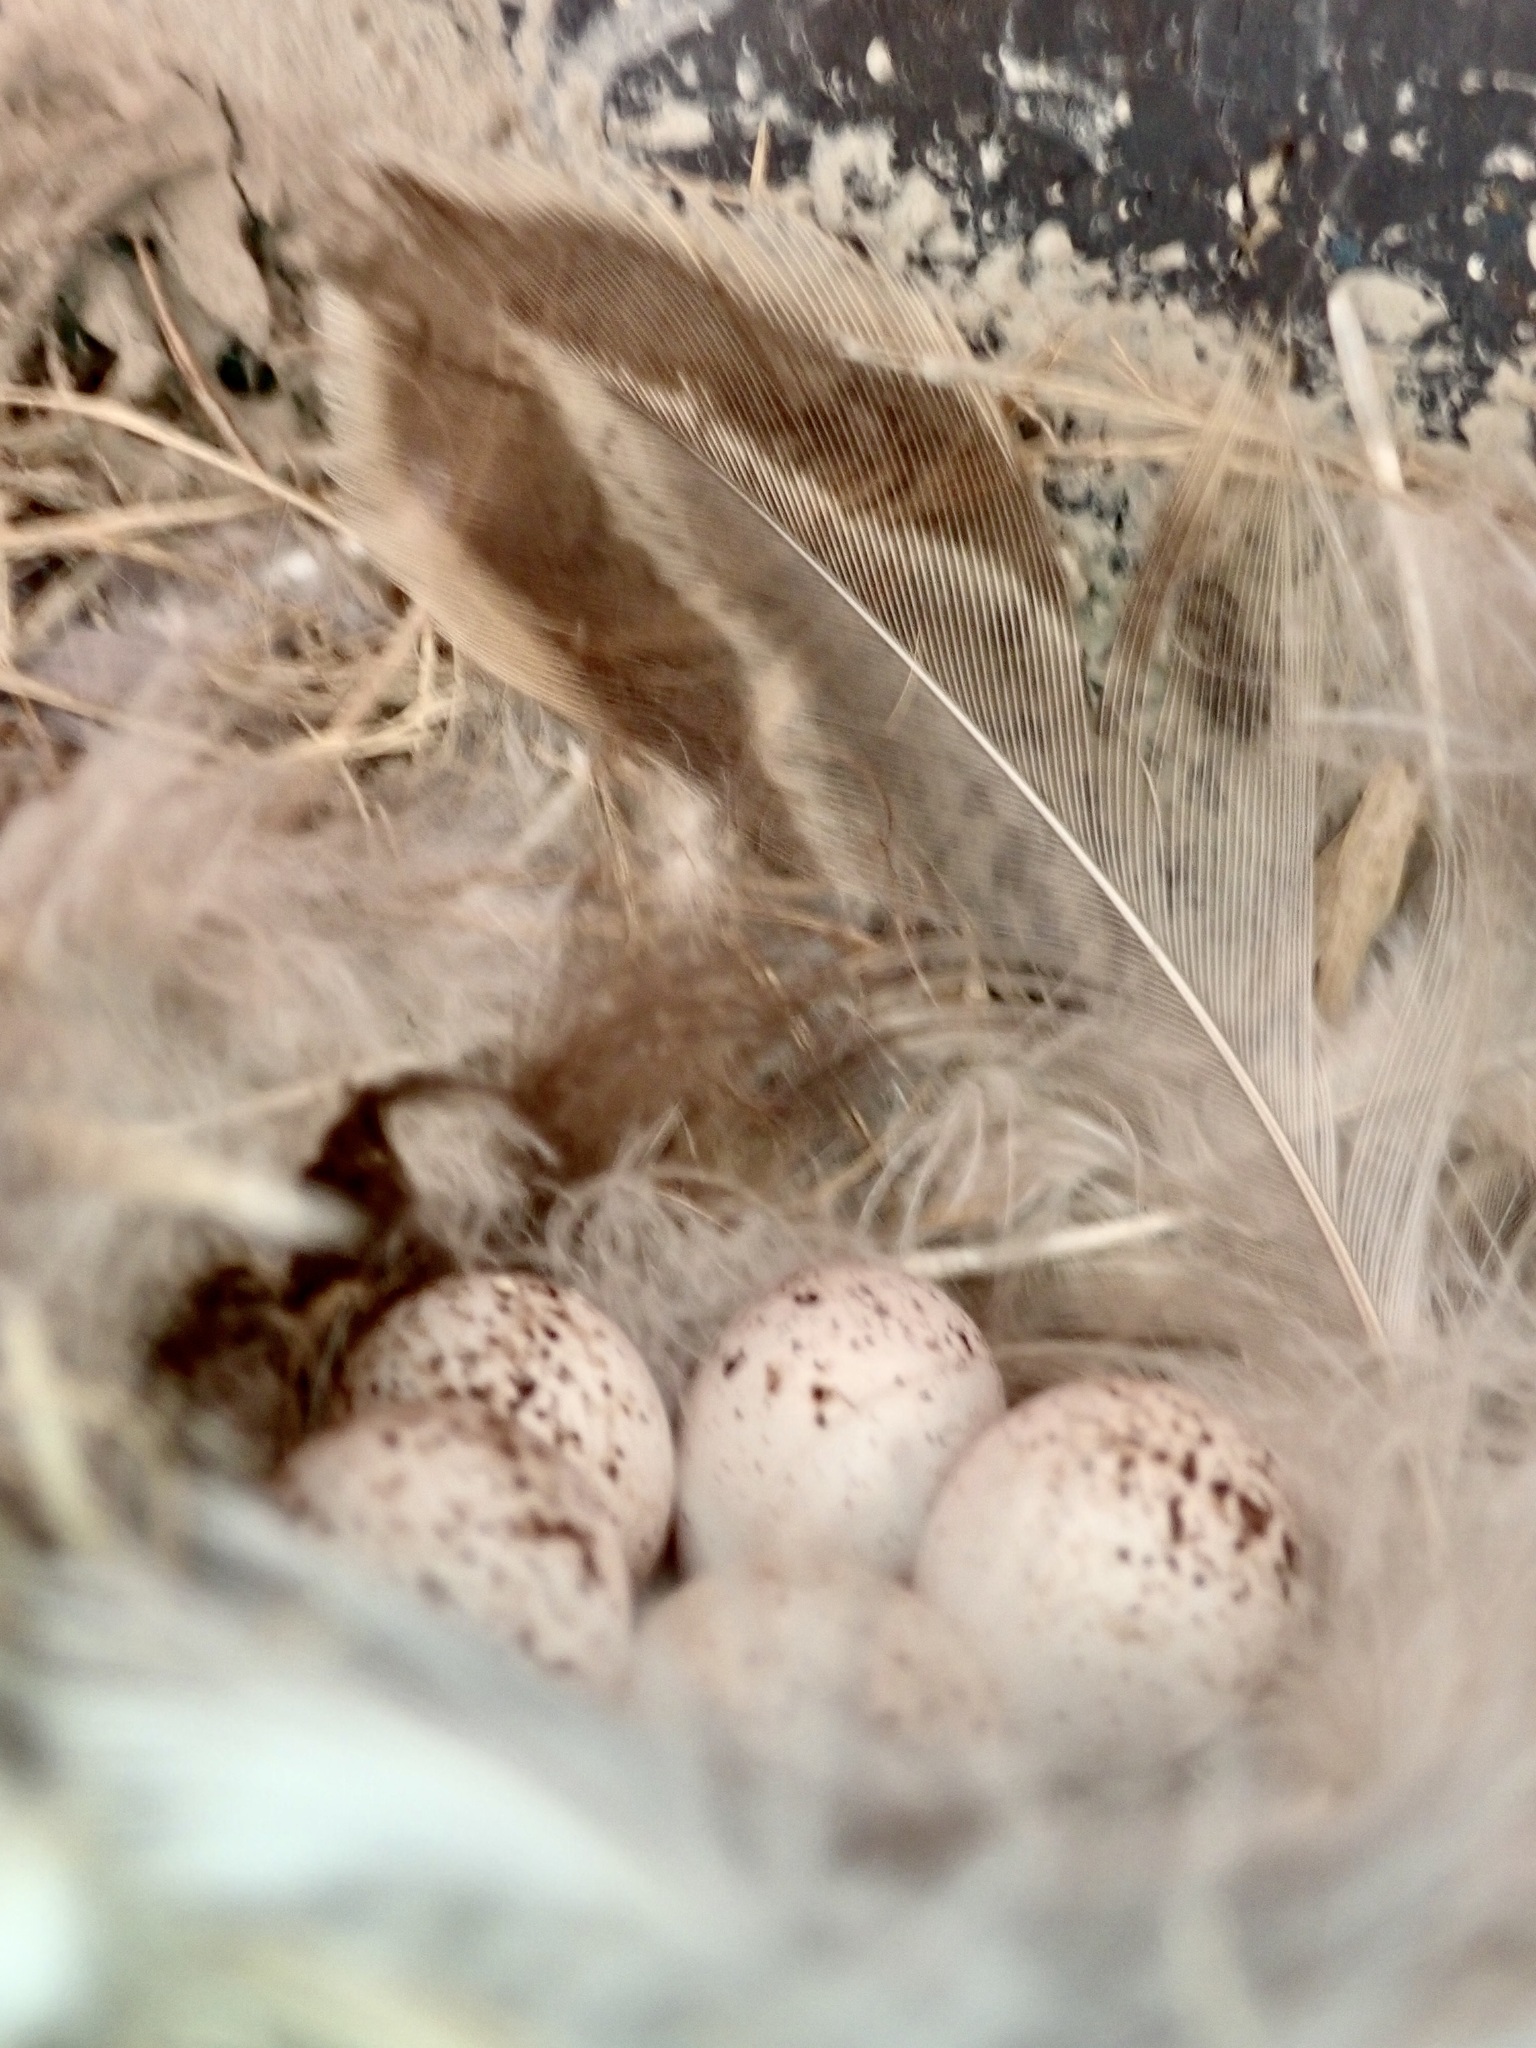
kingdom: Animalia
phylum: Chordata
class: Aves
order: Passeriformes
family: Hirundinidae
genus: Hirundo
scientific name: Hirundo neoxena
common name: Welcome swallow
